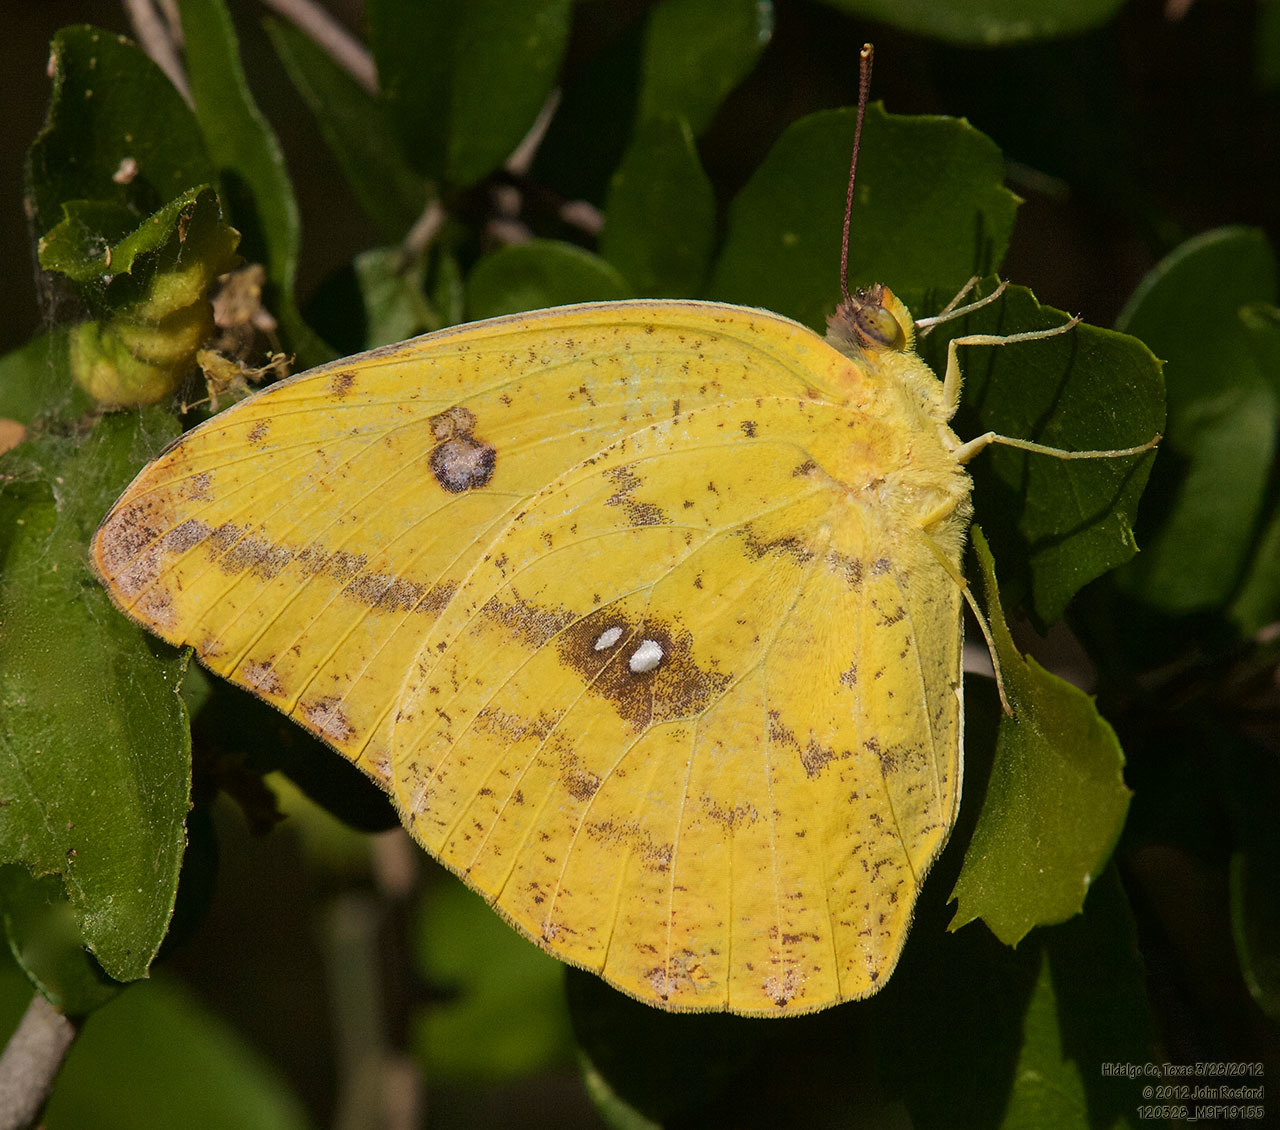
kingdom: Animalia
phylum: Arthropoda
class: Insecta
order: Lepidoptera
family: Pieridae
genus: Phoebis
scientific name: Phoebis agarithe
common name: Large orange sulphur
